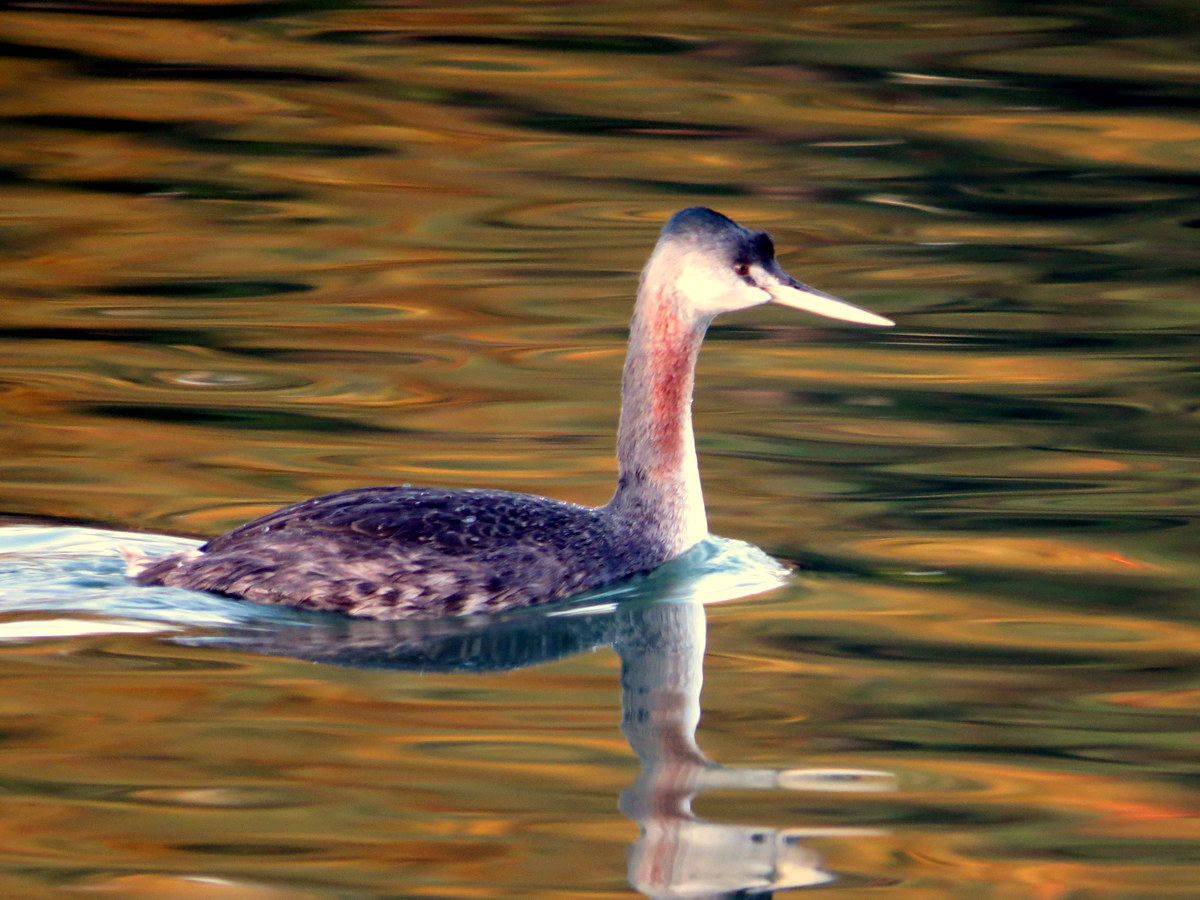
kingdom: Animalia
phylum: Chordata
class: Aves
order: Podicipediformes
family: Podicipedidae
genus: Podiceps
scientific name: Podiceps major
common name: Great grebe
